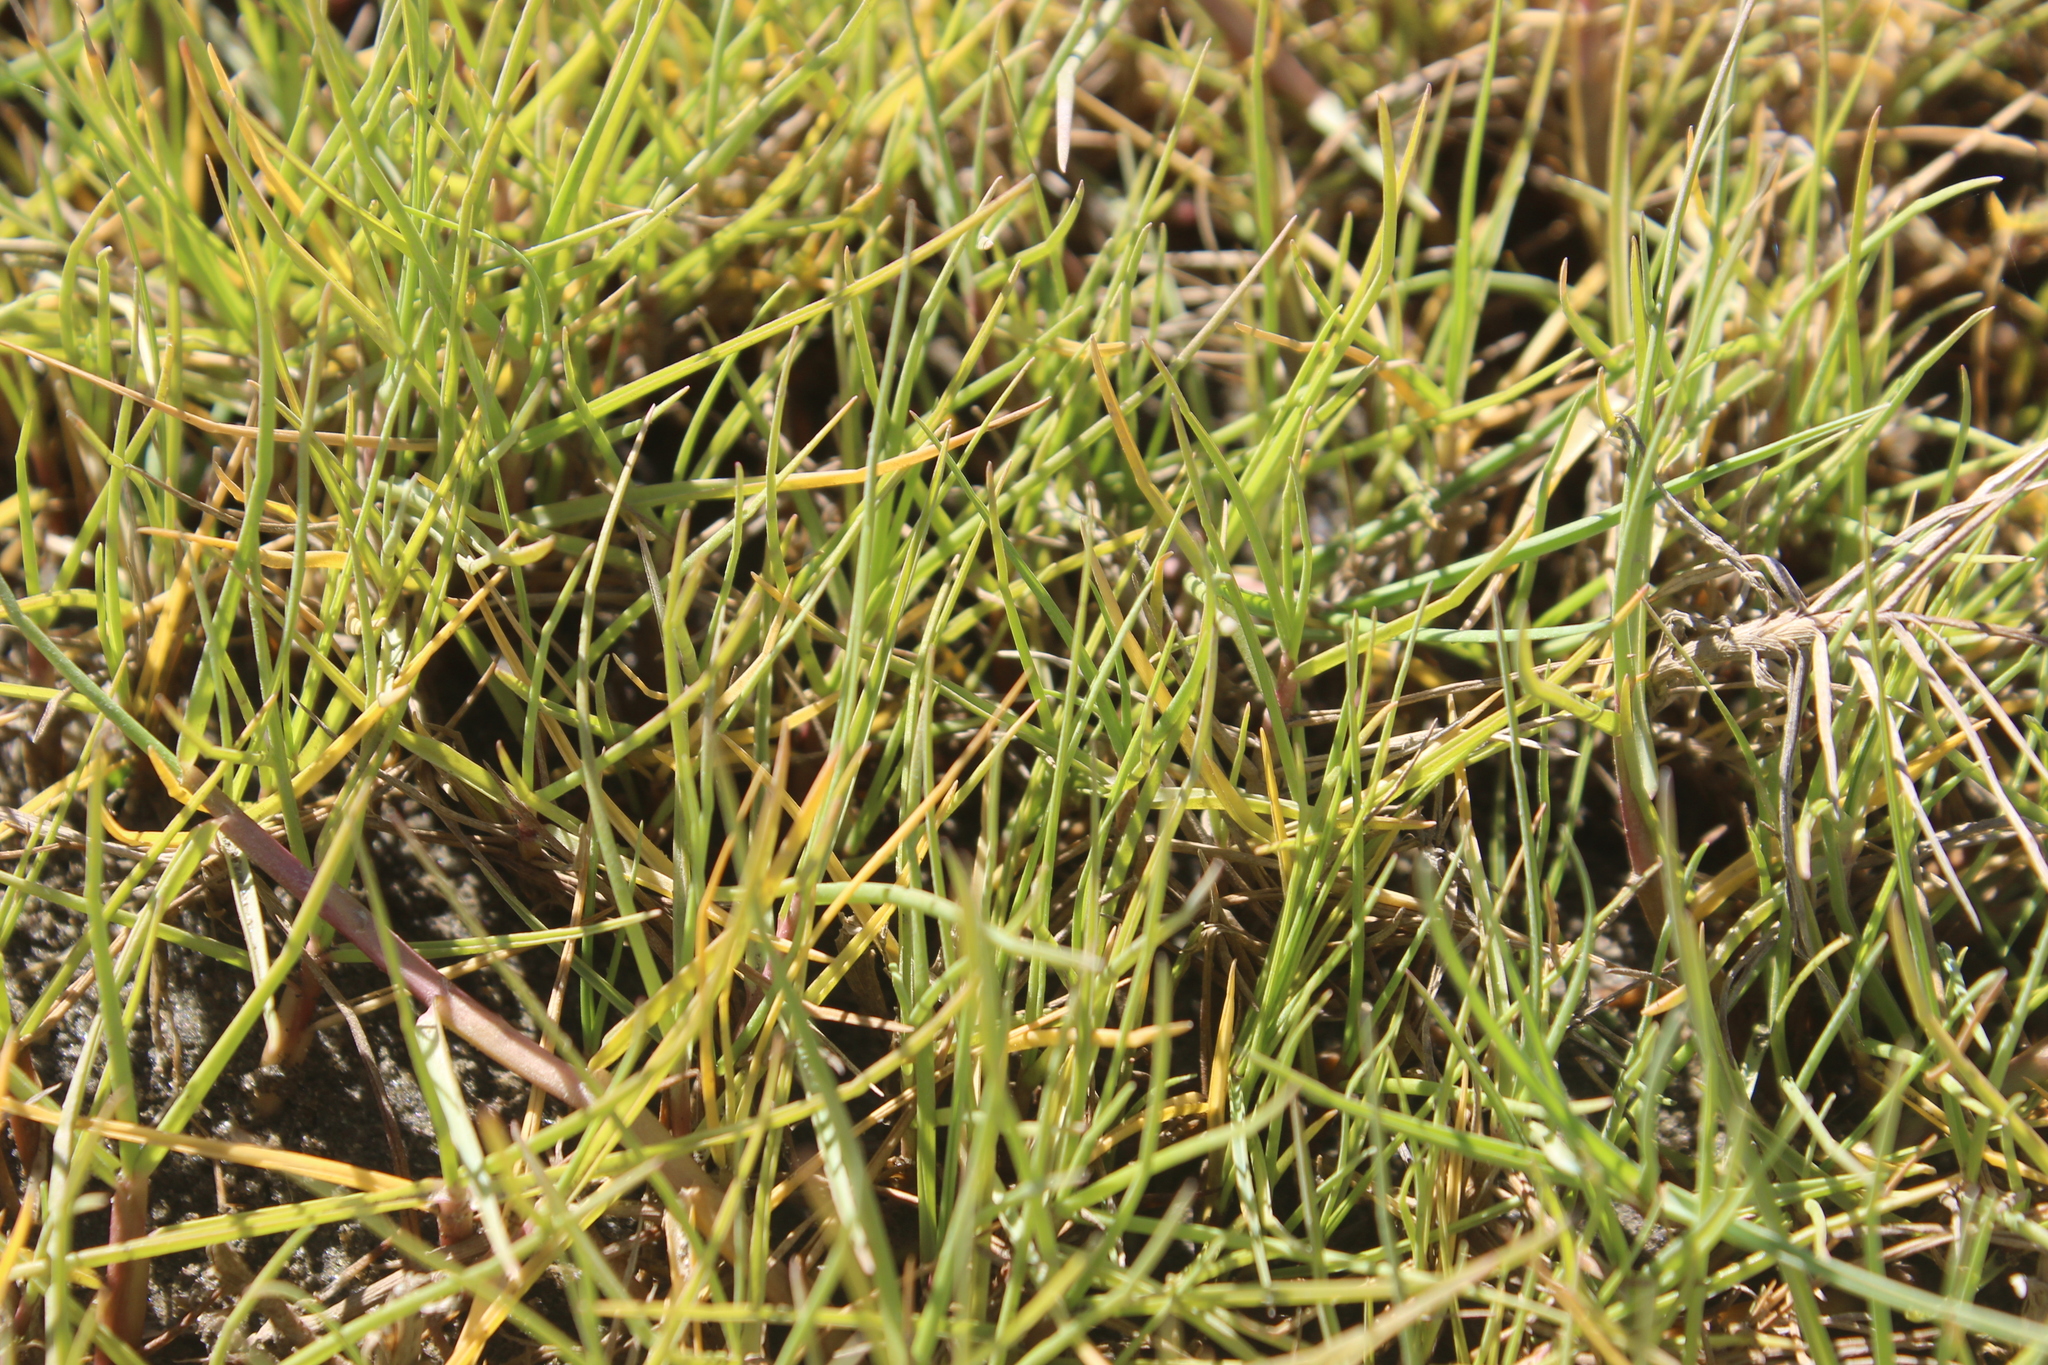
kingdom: Plantae
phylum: Tracheophyta
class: Liliopsida
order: Poales
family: Poaceae
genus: Paspalum
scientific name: Paspalum vaginatum
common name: Seashore paspalum
